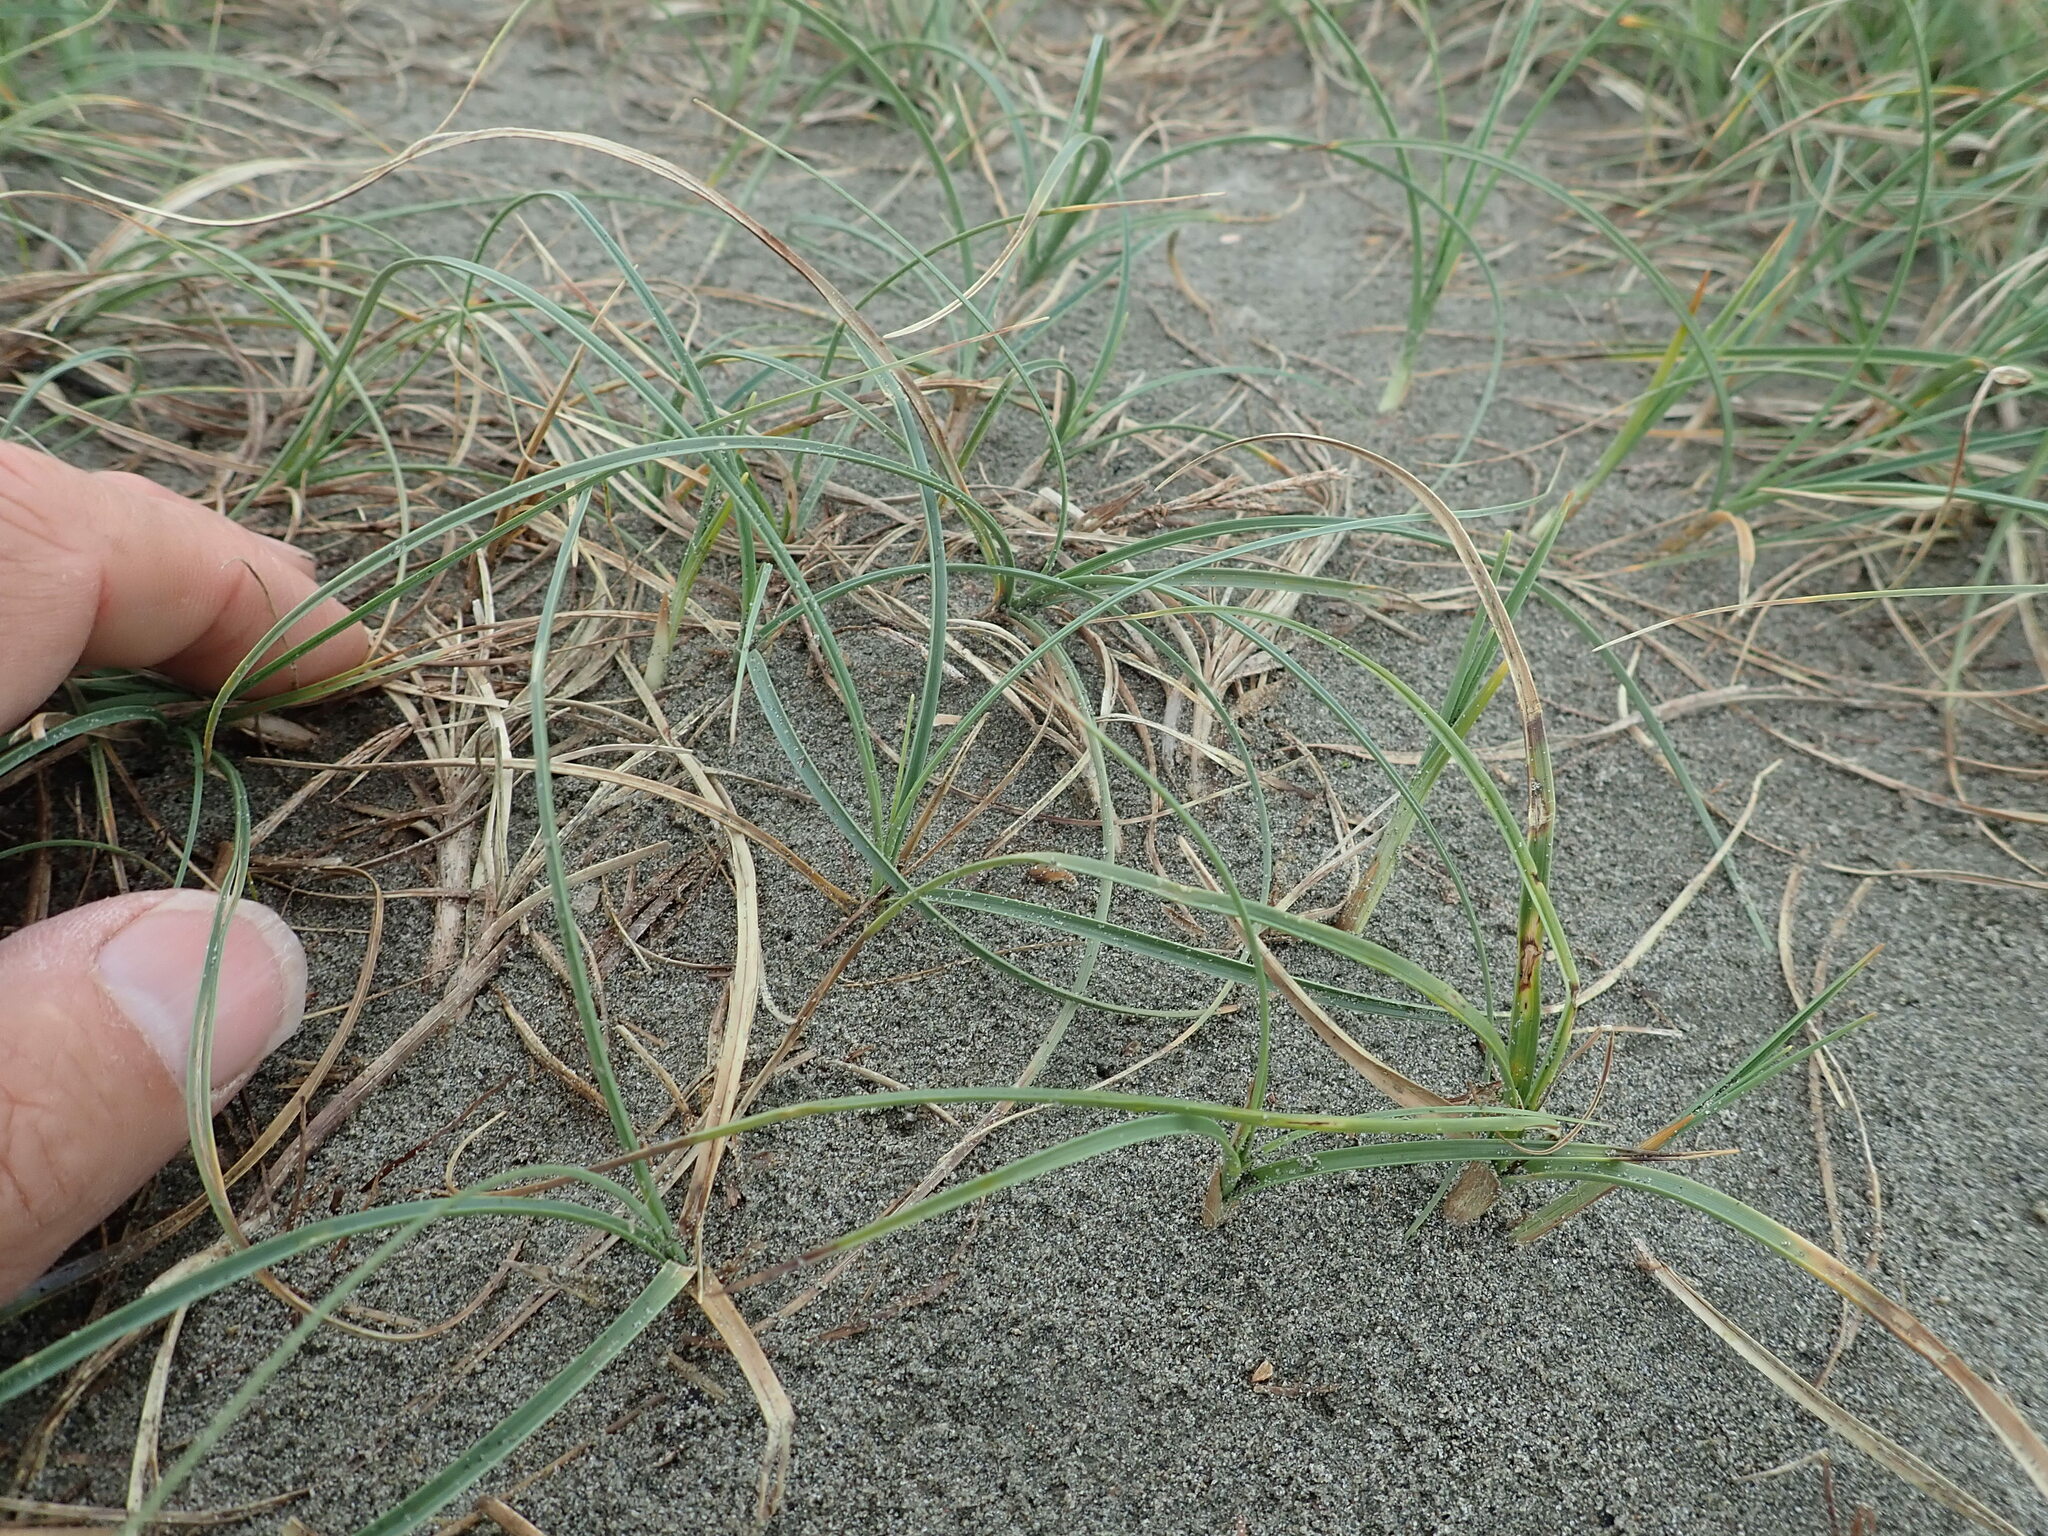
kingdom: Plantae
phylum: Tracheophyta
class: Liliopsida
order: Poales
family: Cyperaceae
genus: Carex
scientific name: Carex pumila
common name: Dwarf sedge
